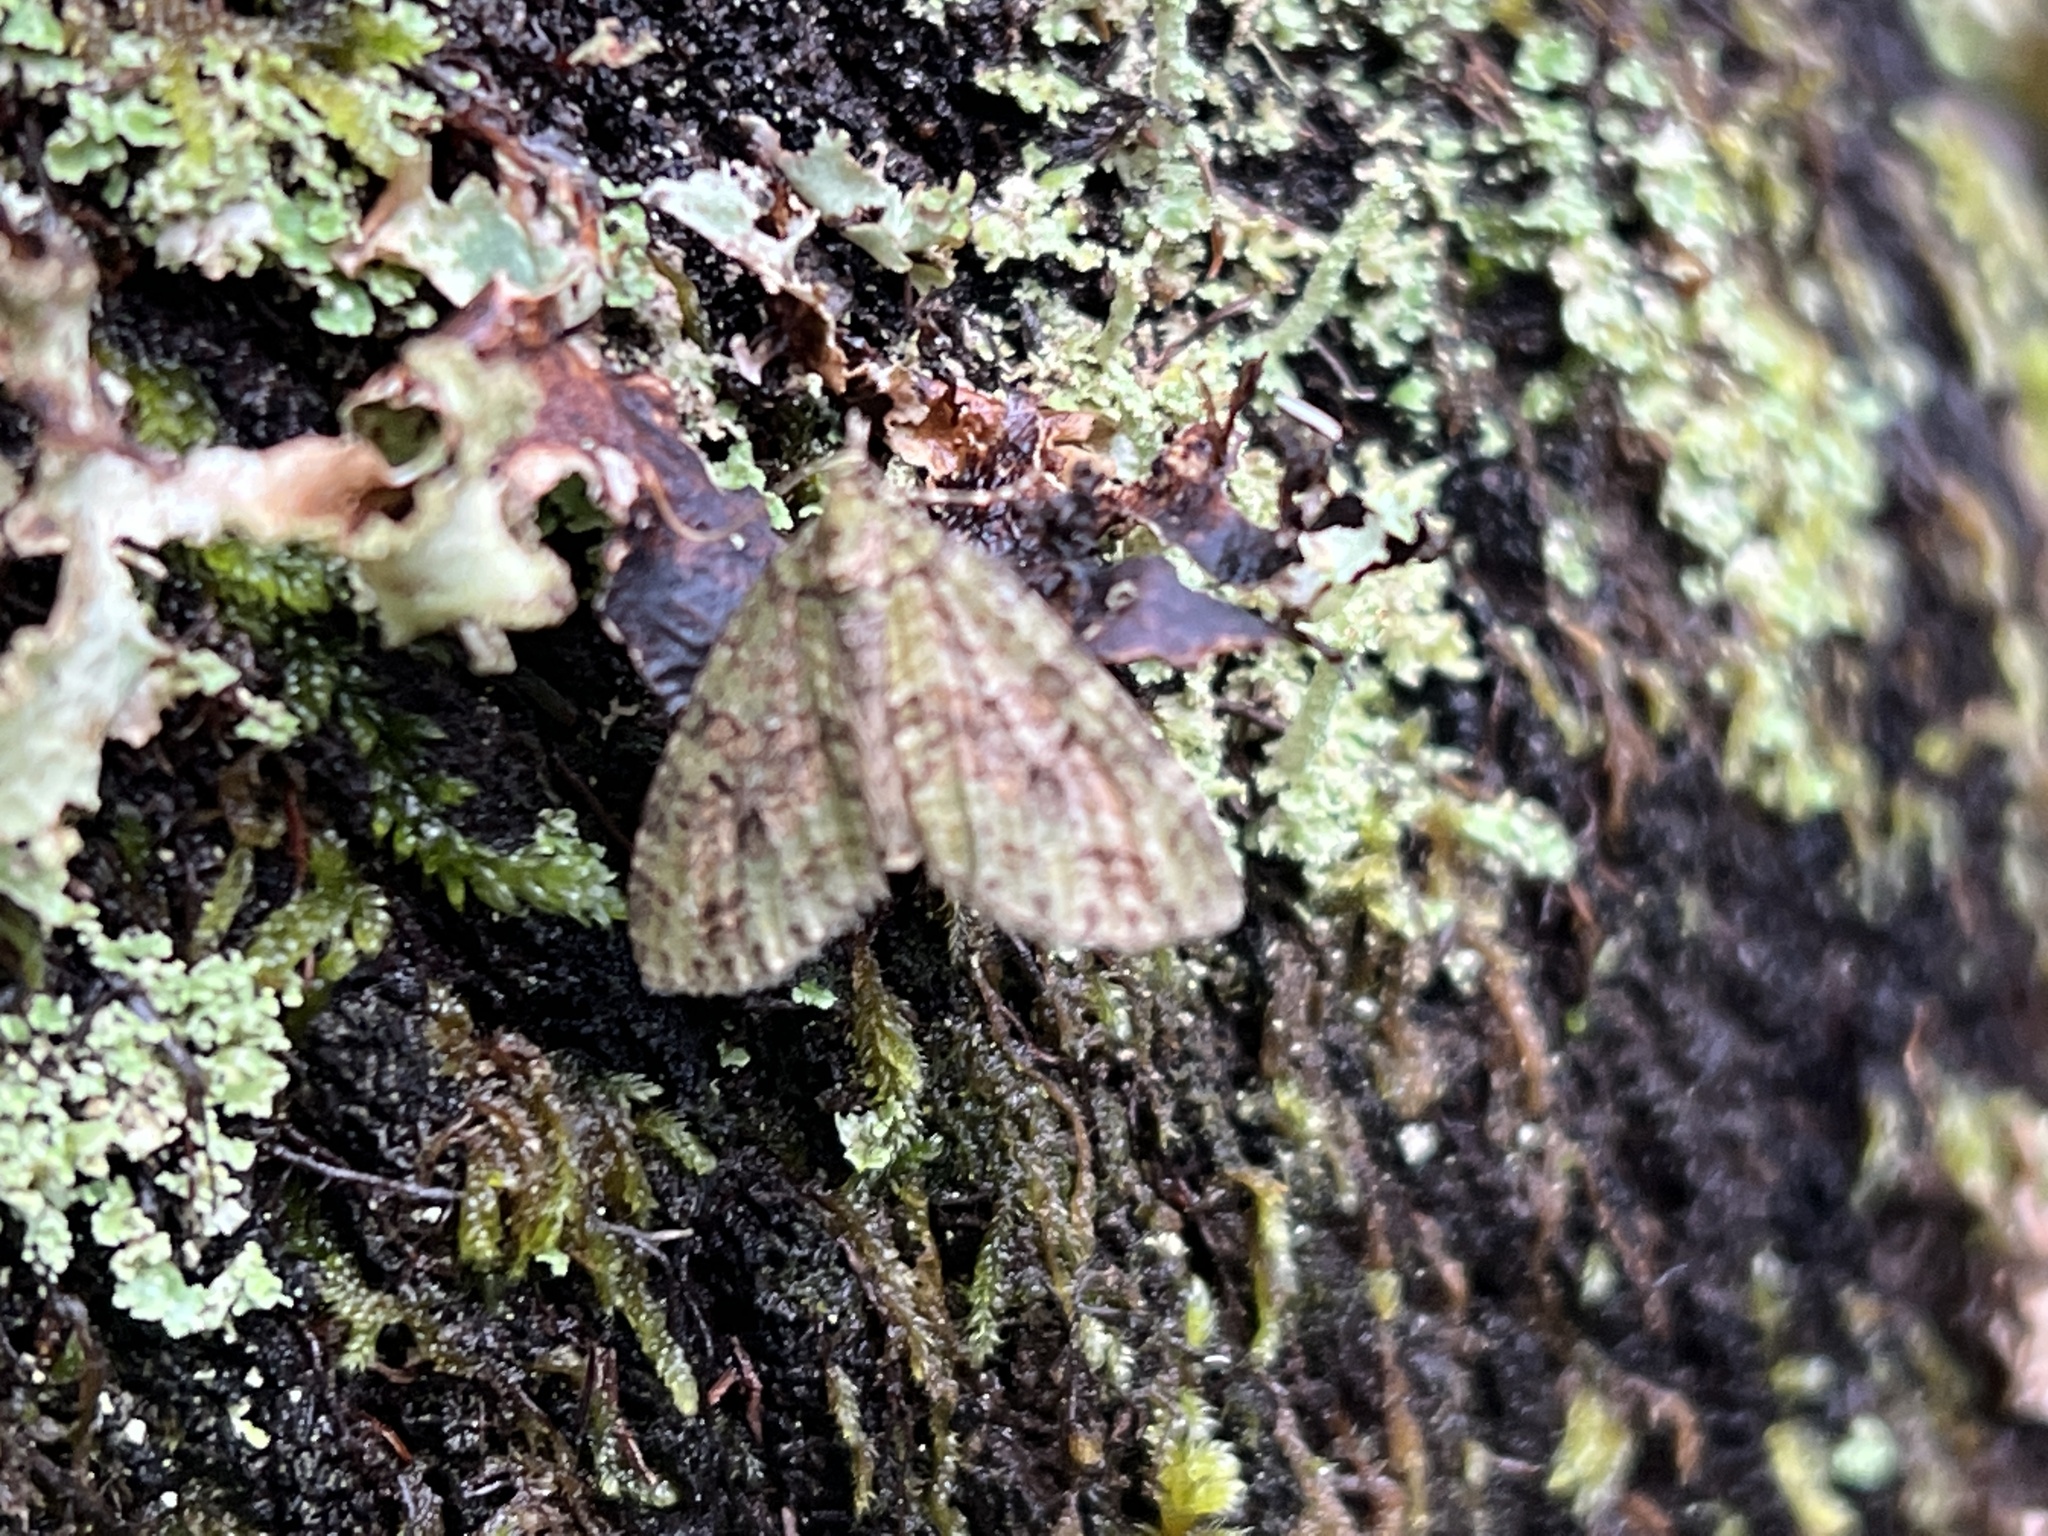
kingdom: Animalia
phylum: Arthropoda
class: Insecta
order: Lepidoptera
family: Geometridae
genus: Episauris
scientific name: Episauris kiliani
